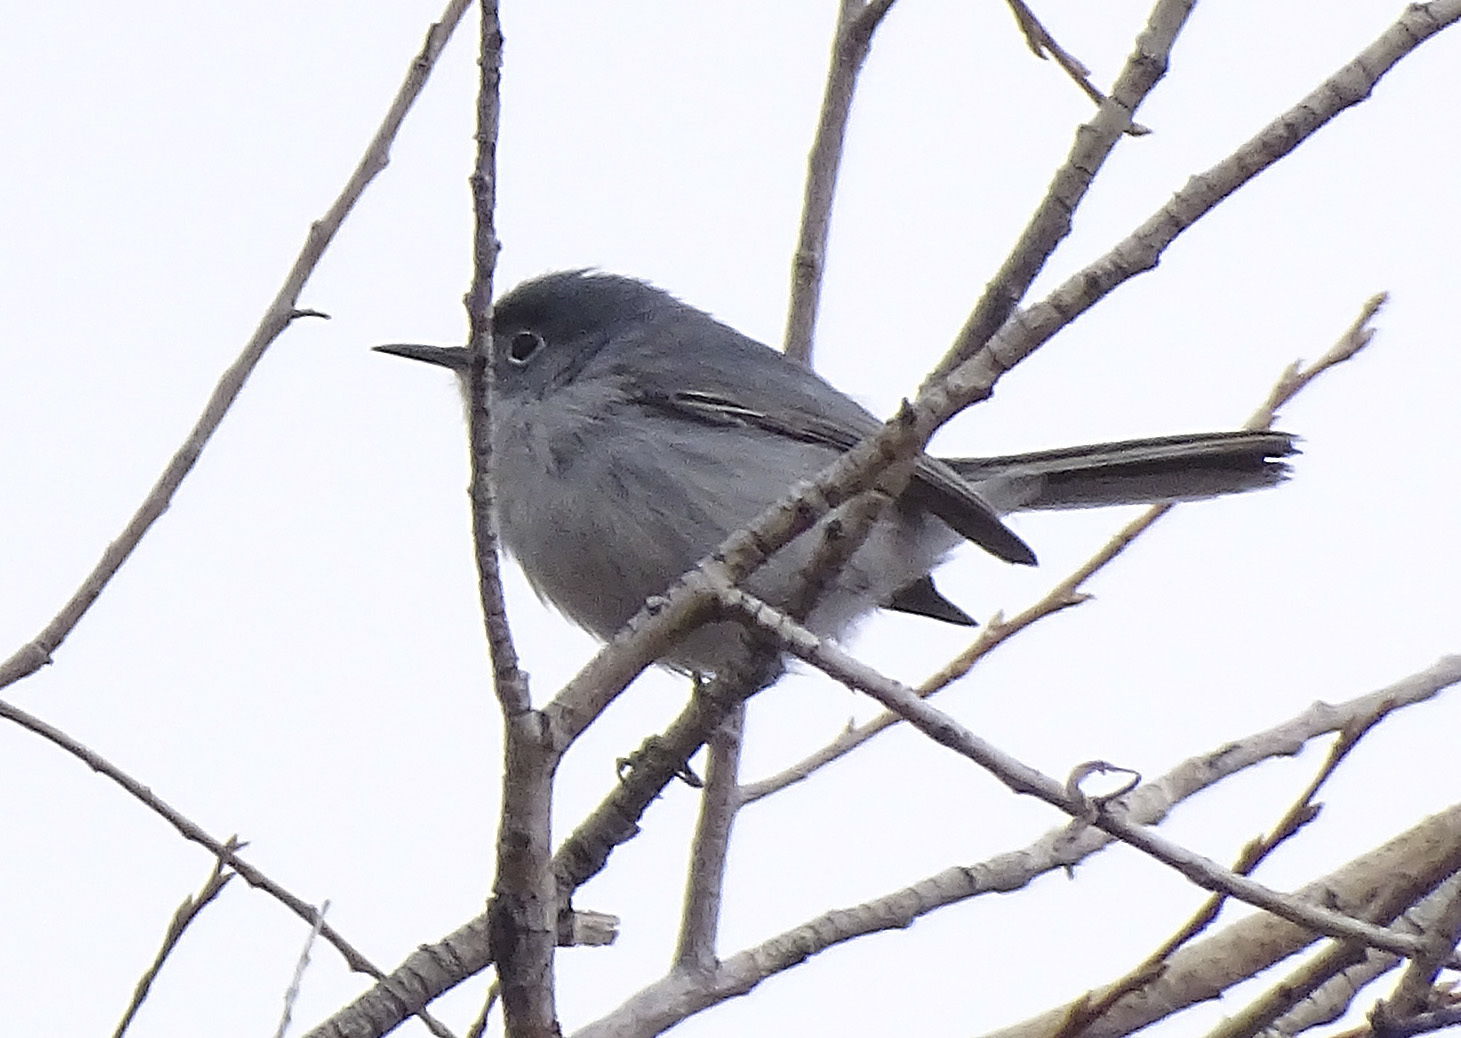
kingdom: Animalia
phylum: Chordata
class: Aves
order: Passeriformes
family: Polioptilidae
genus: Polioptila
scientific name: Polioptila caerulea
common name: Blue-gray gnatcatcher
